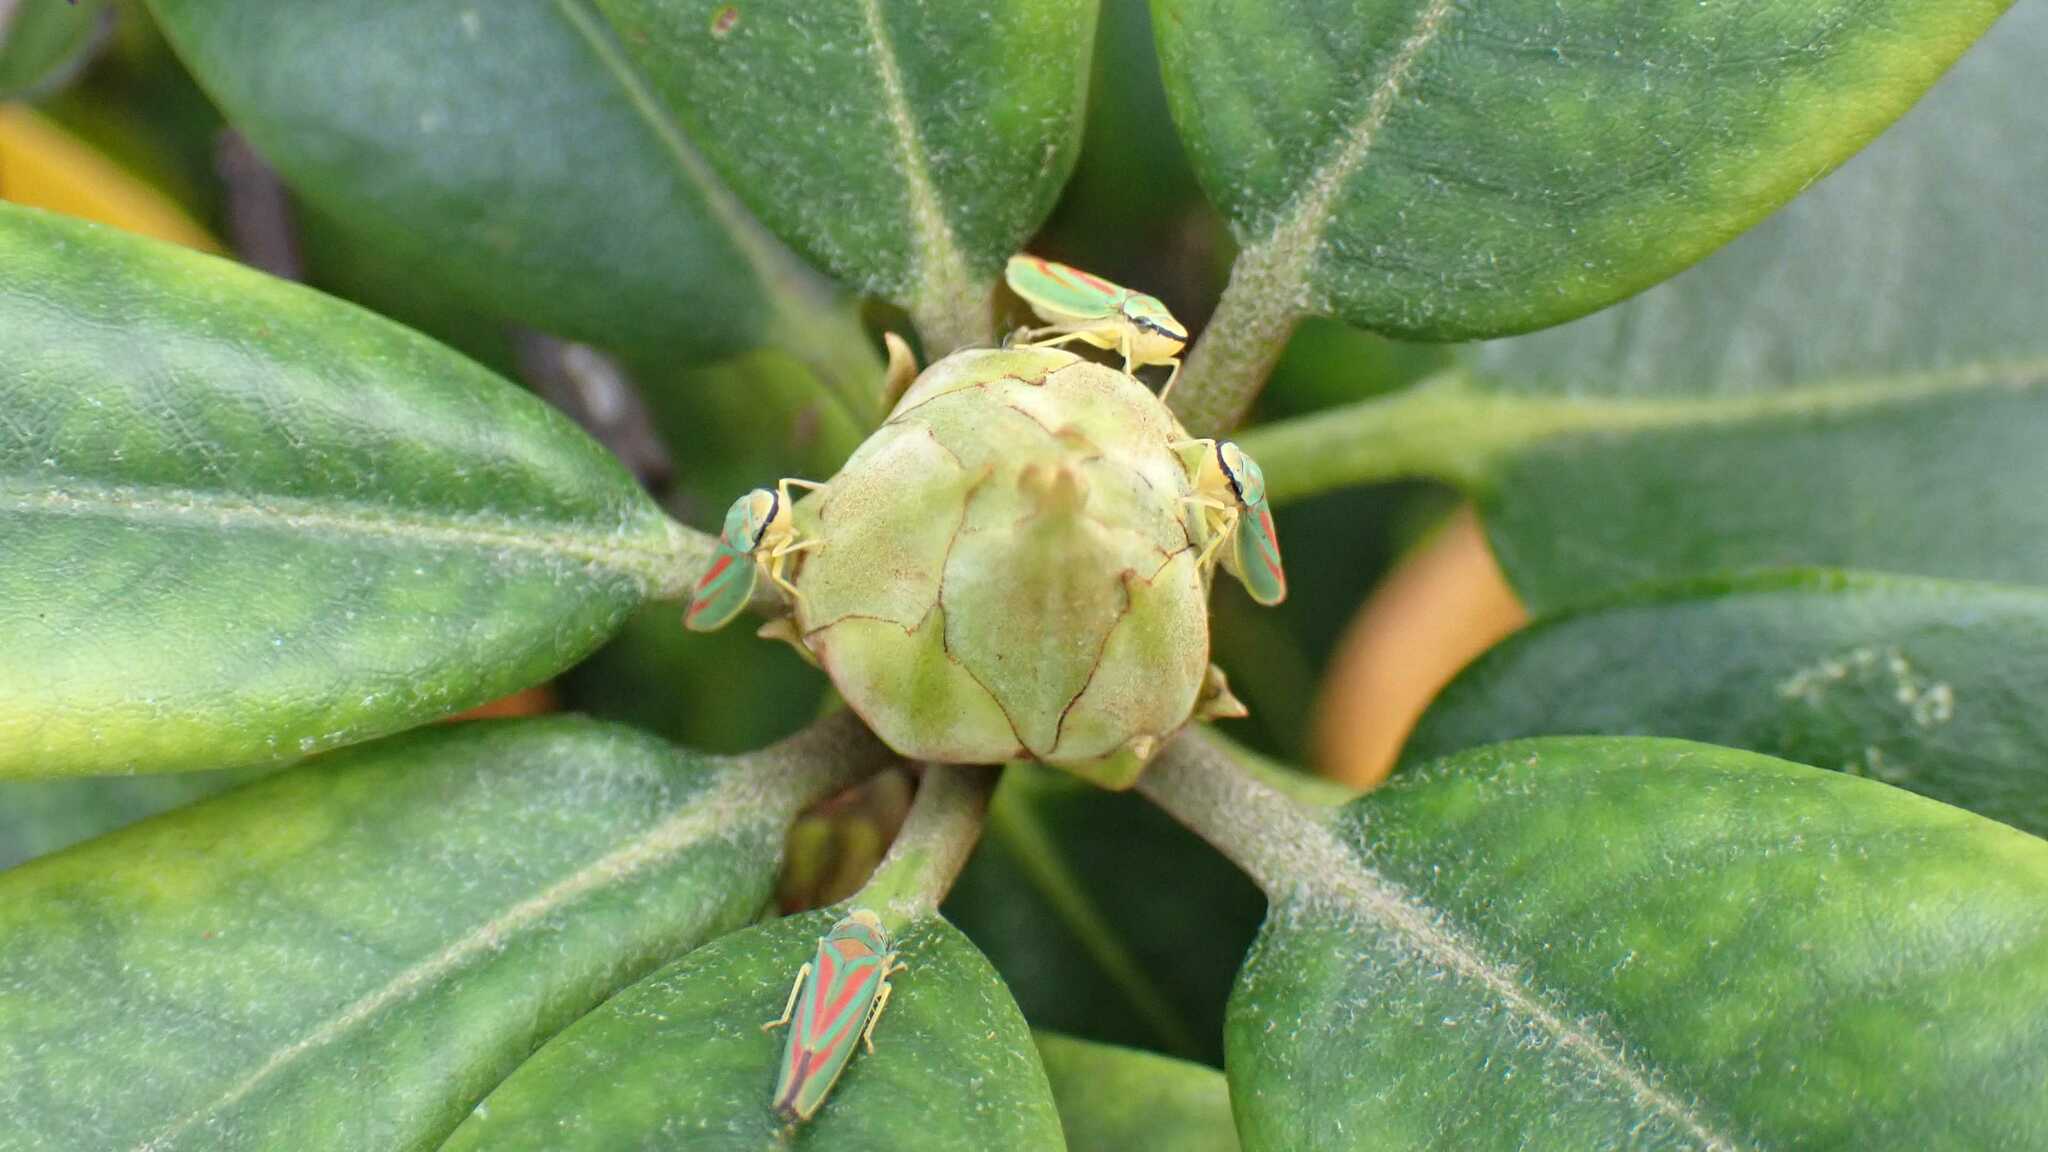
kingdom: Animalia
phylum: Arthropoda
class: Insecta
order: Hemiptera
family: Cicadellidae
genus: Graphocephala
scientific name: Graphocephala fennahi
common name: Rhododendron leafhopper
